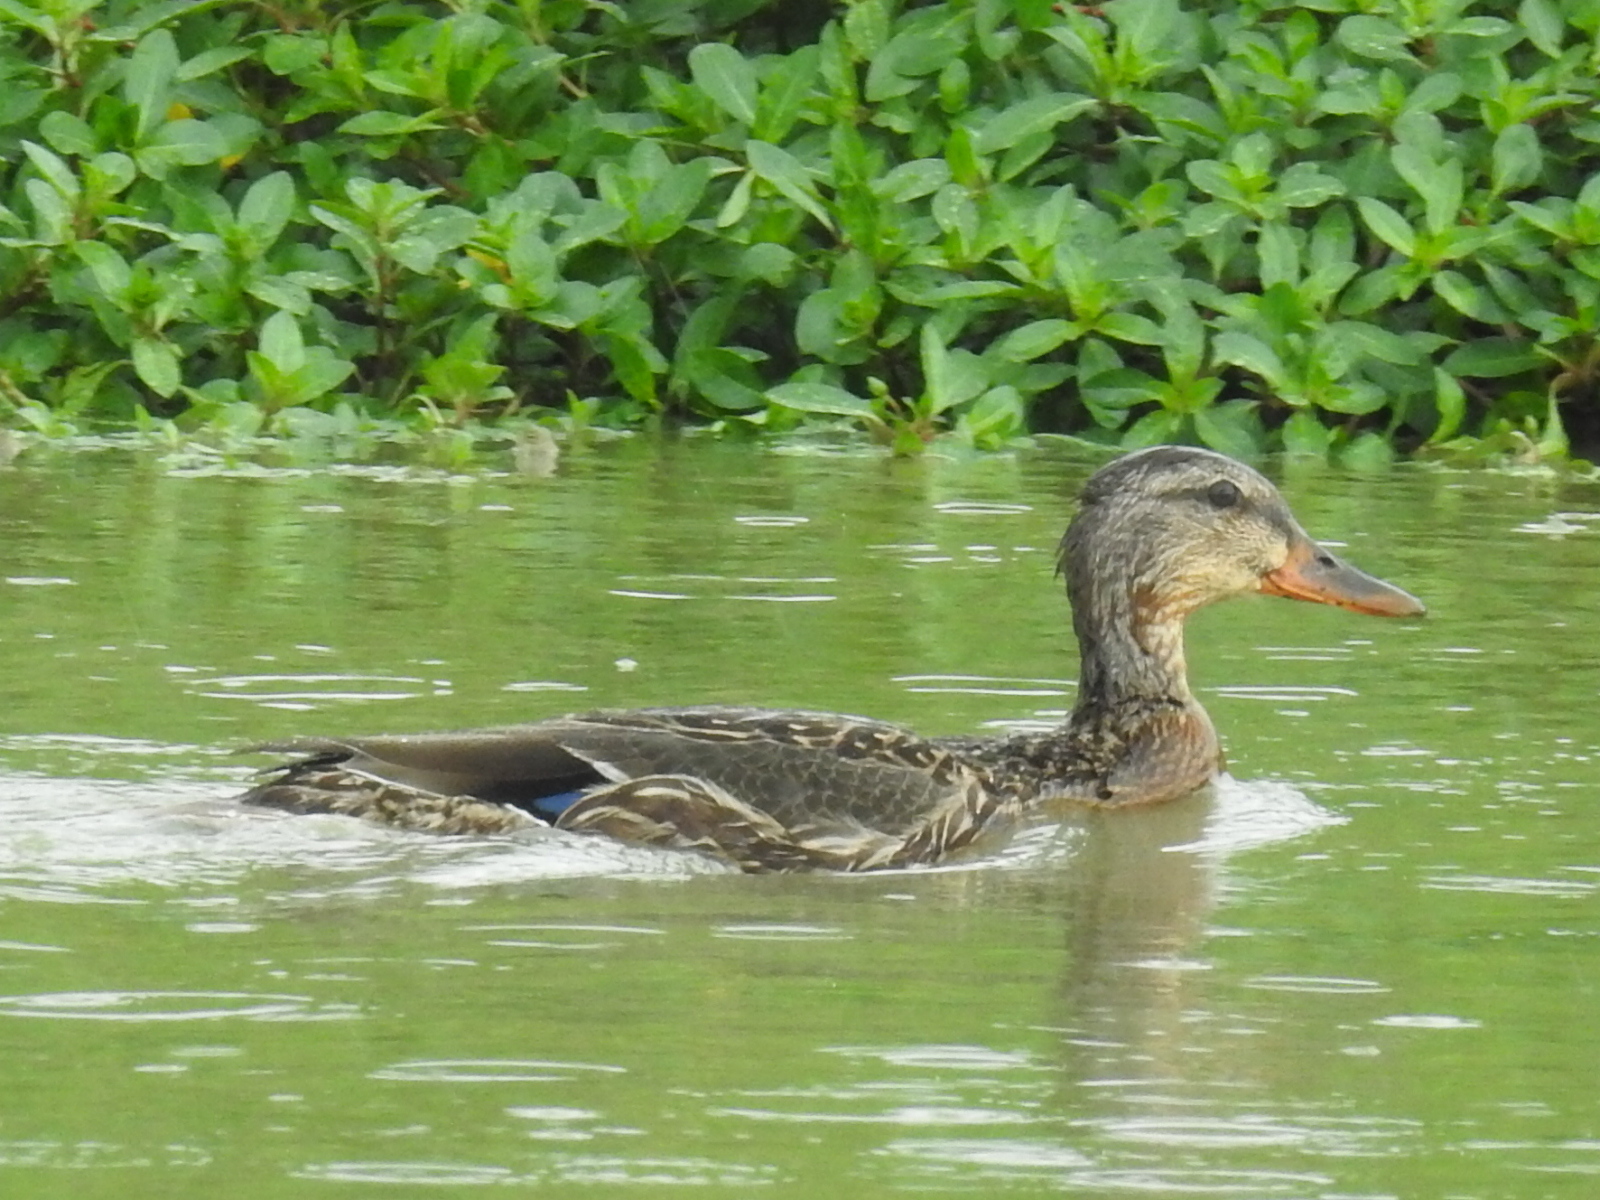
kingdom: Animalia
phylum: Chordata
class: Aves
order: Anseriformes
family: Anatidae
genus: Anas
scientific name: Anas platyrhynchos
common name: Mallard
